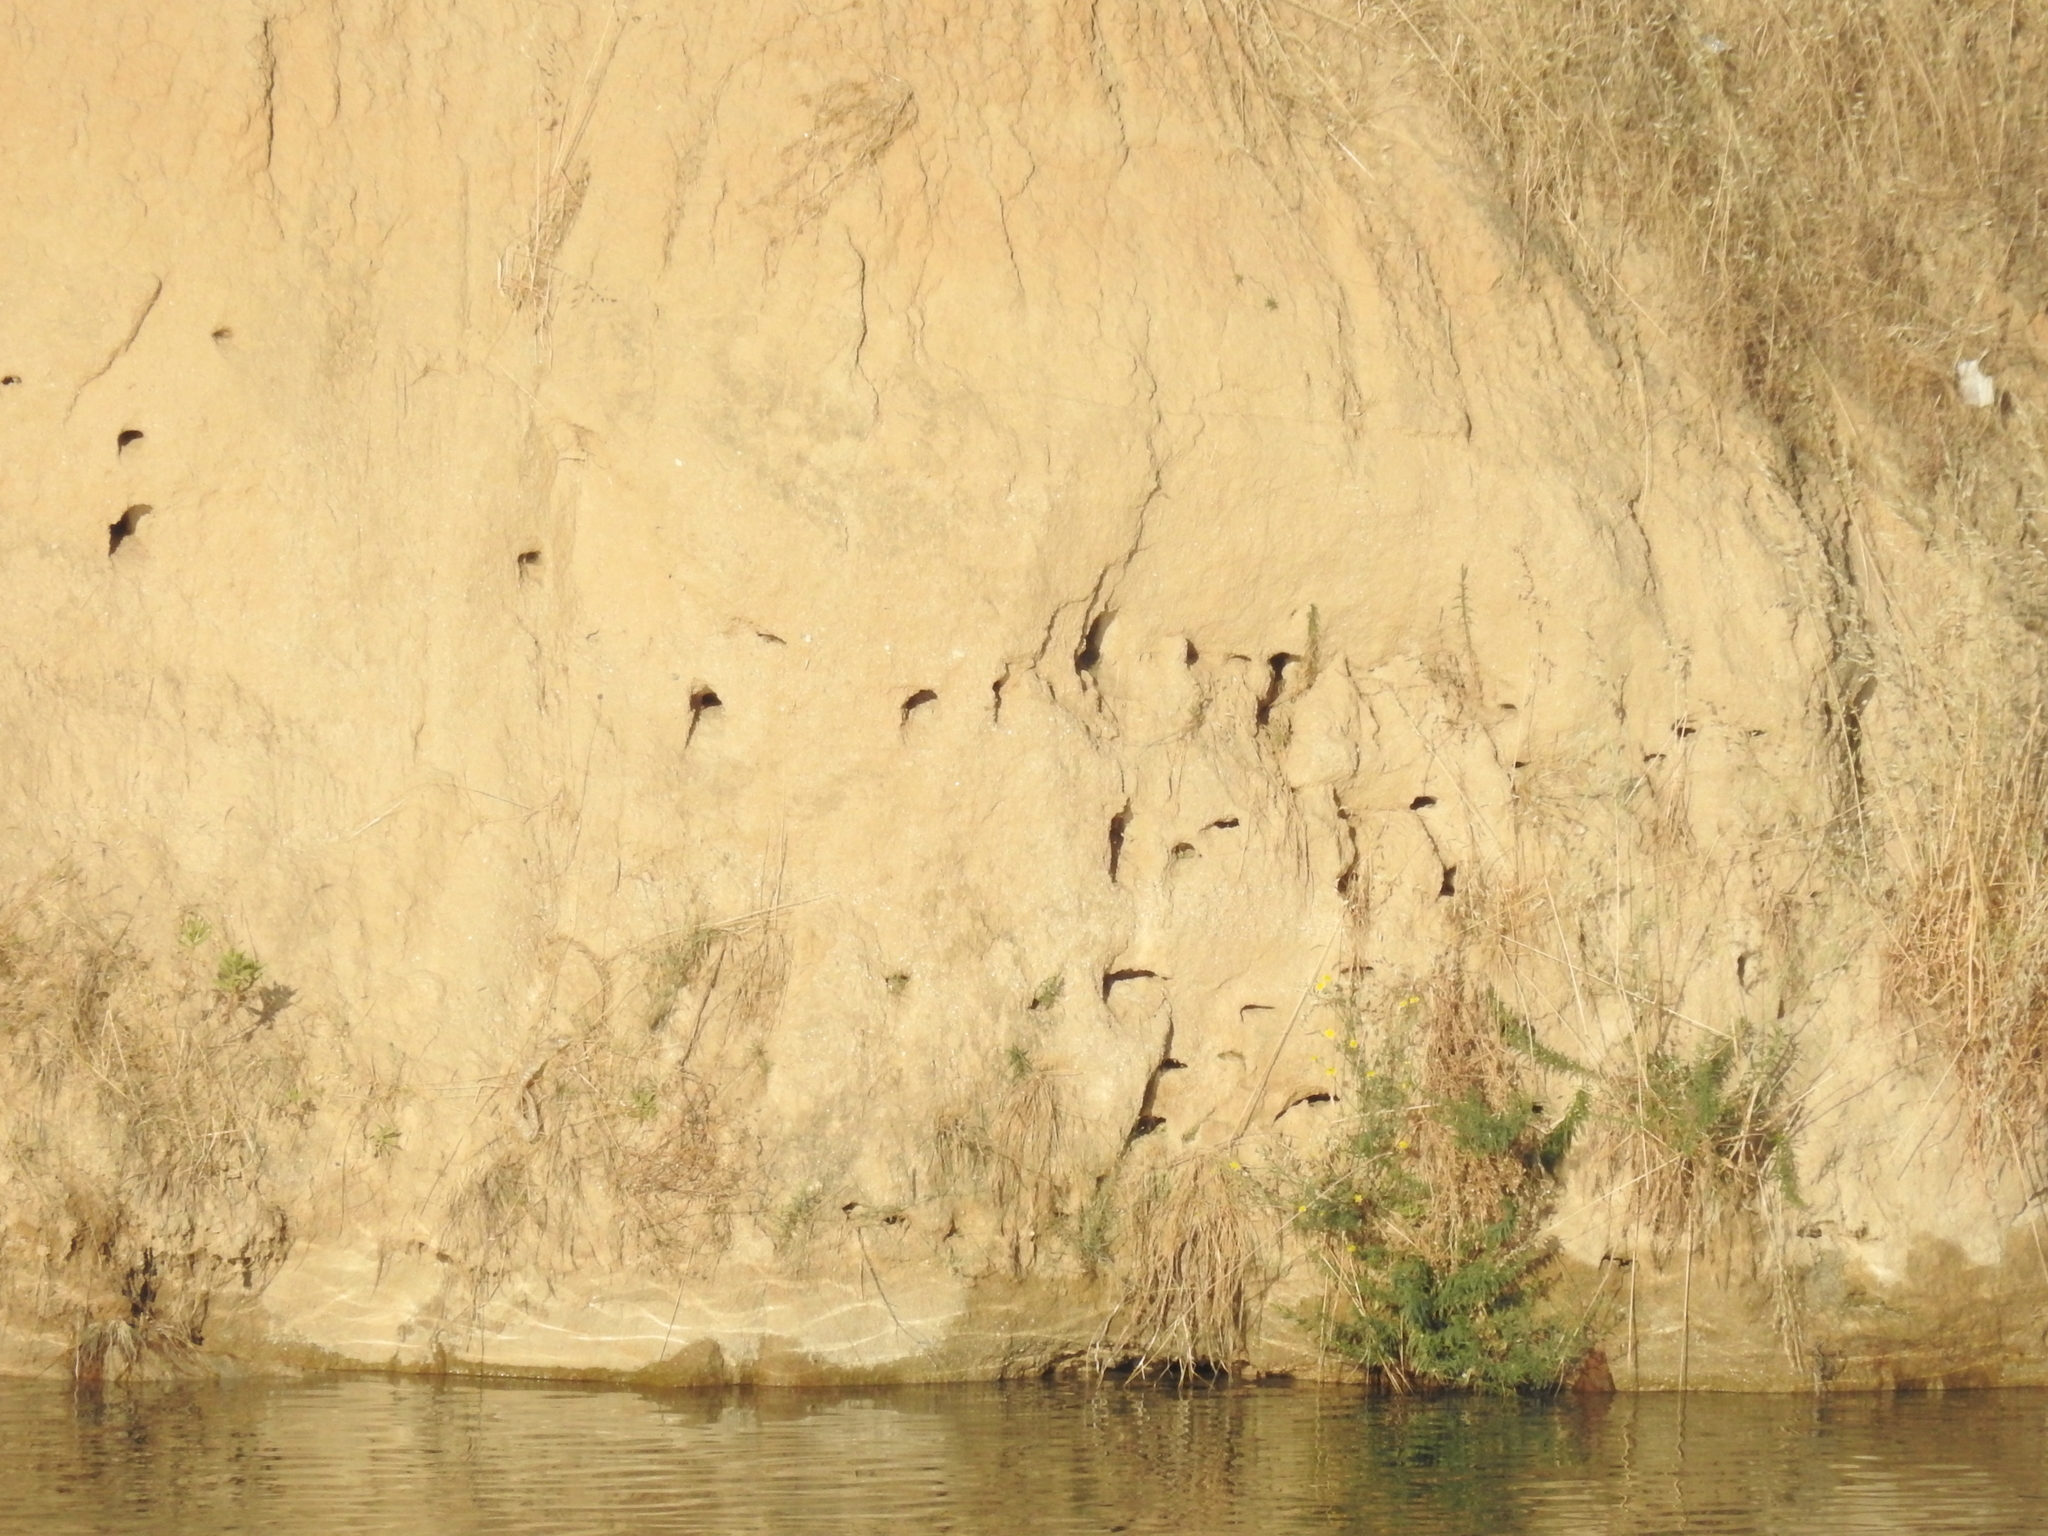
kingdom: Animalia
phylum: Chordata
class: Aves
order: Passeriformes
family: Hirundinidae
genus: Riparia
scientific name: Riparia riparia
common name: Sand martin
